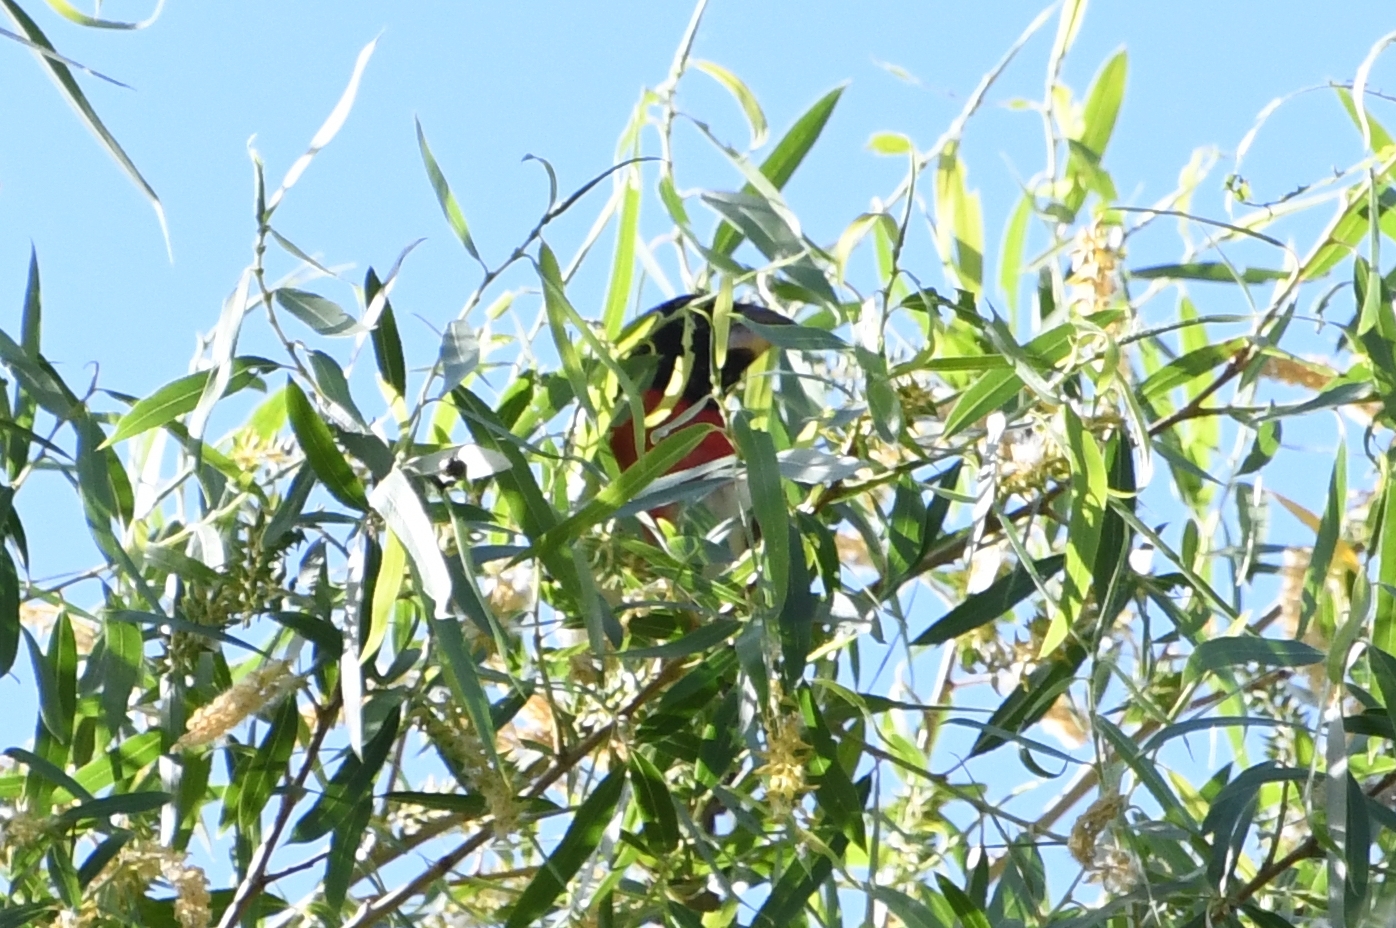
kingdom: Animalia
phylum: Chordata
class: Aves
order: Passeriformes
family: Cardinalidae
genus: Pheucticus
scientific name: Pheucticus ludovicianus
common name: Rose-breasted grosbeak
